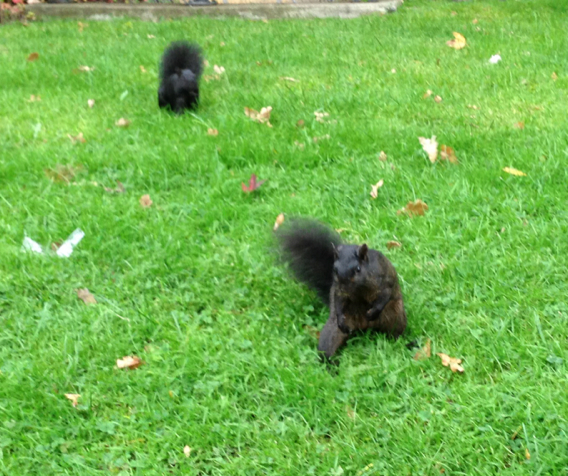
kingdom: Animalia
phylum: Chordata
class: Mammalia
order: Rodentia
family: Sciuridae
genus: Sciurus
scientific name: Sciurus carolinensis
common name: Eastern gray squirrel
